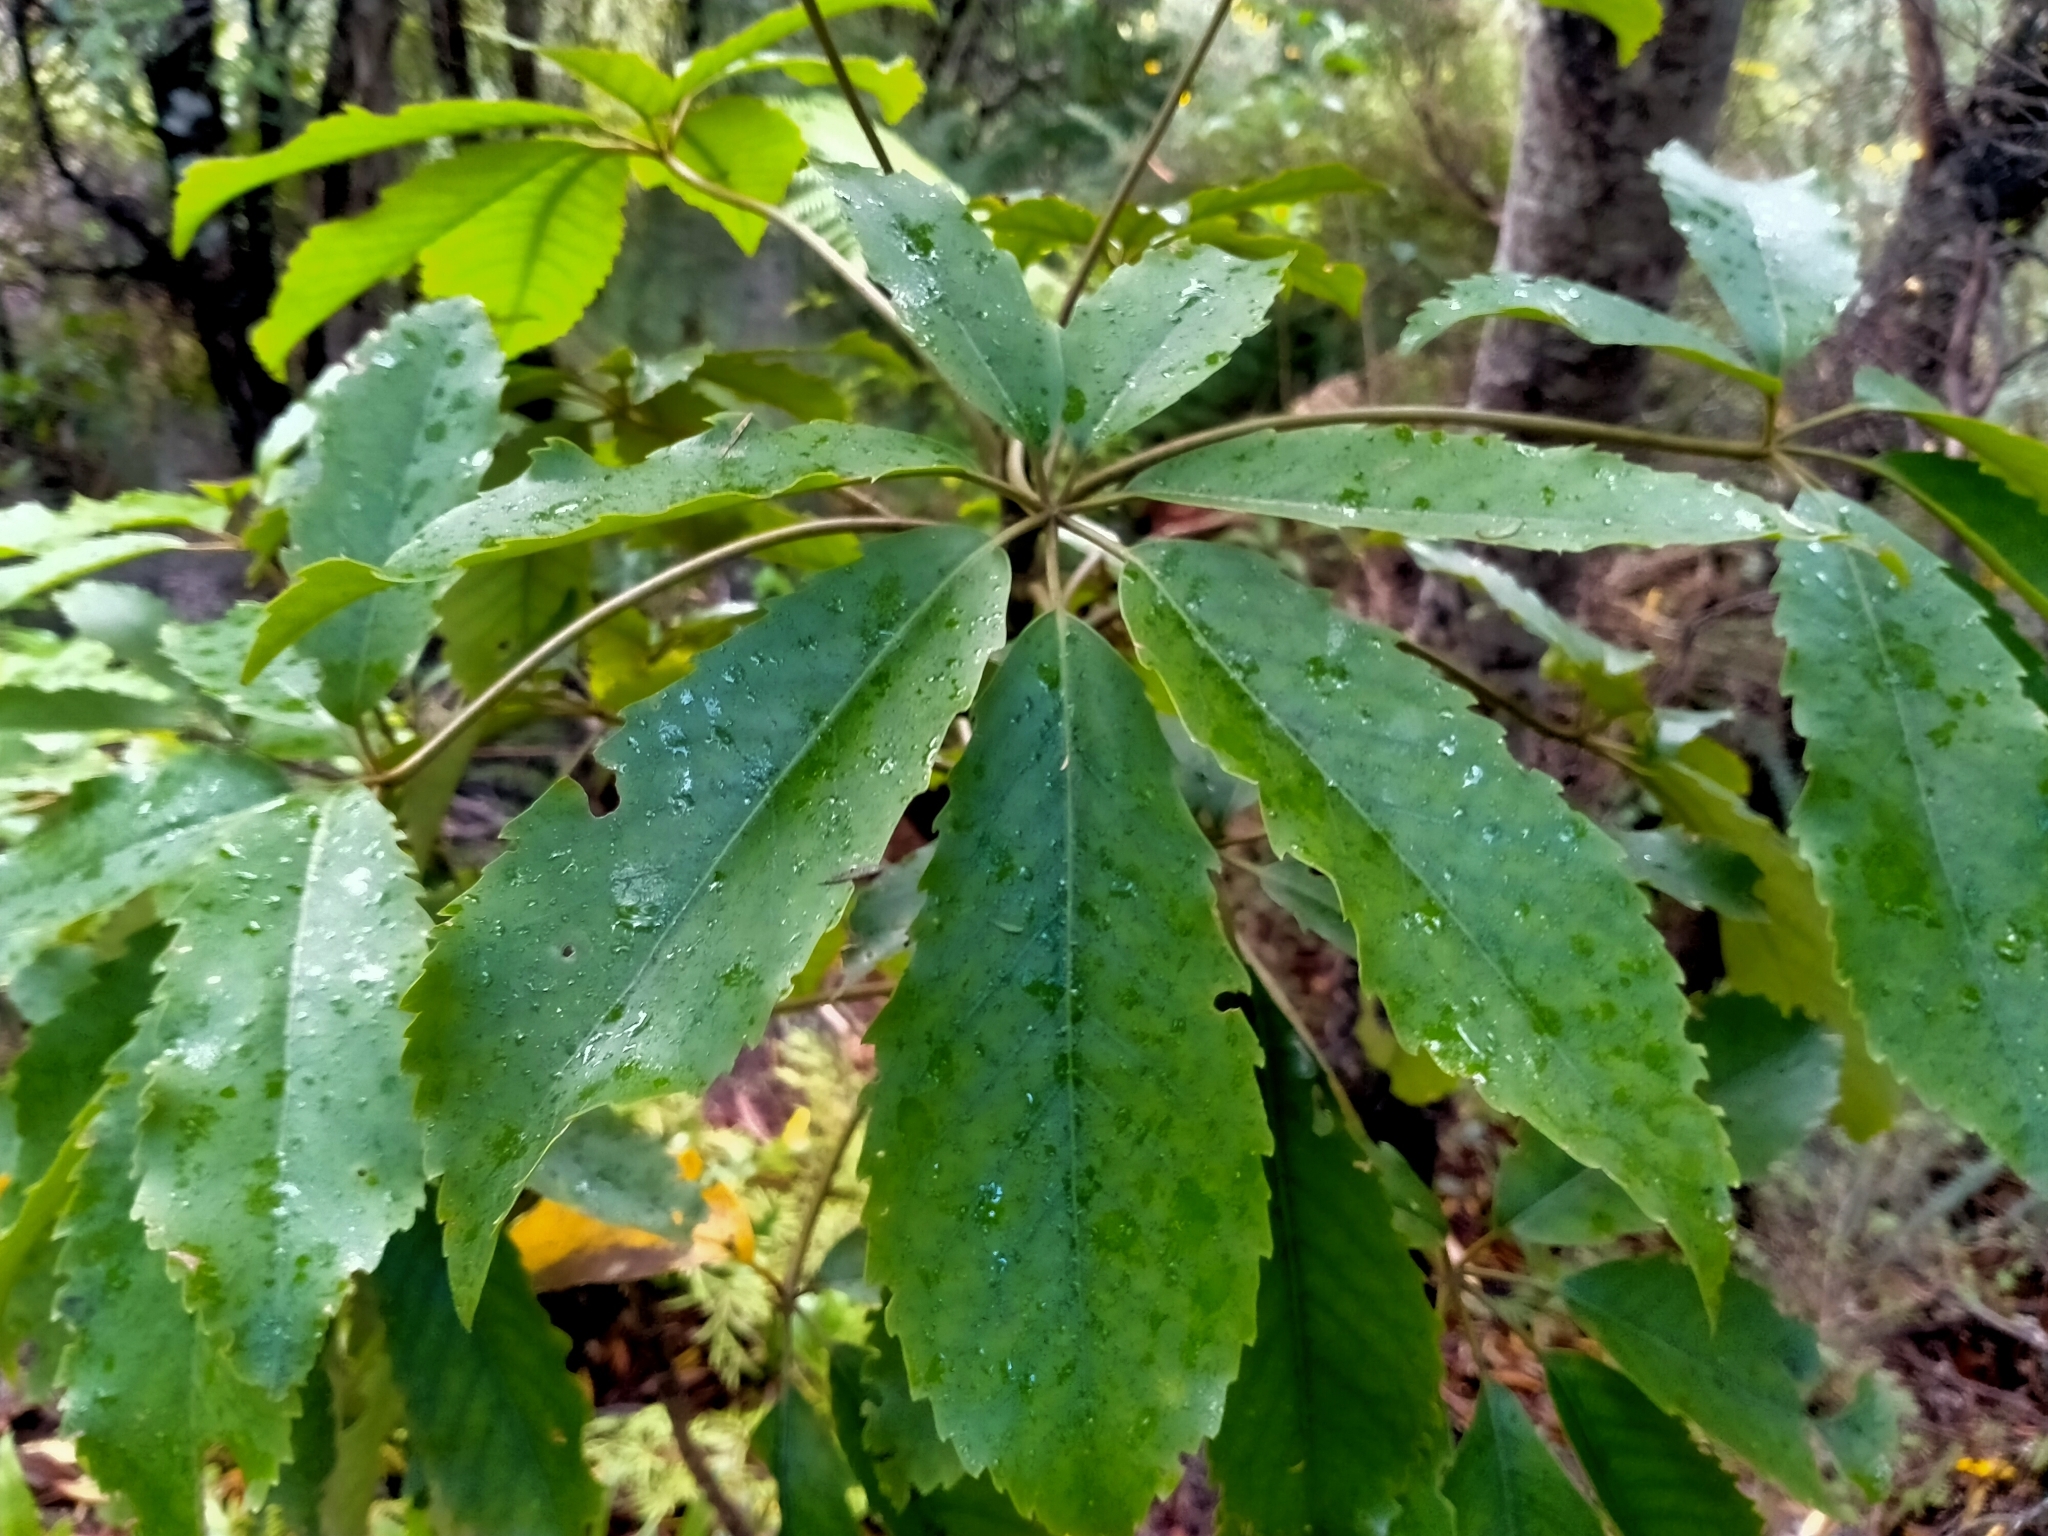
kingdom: Plantae
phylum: Tracheophyta
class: Magnoliopsida
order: Apiales
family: Araliaceae
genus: Neopanax
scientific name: Neopanax arboreus
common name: Five-fingers
